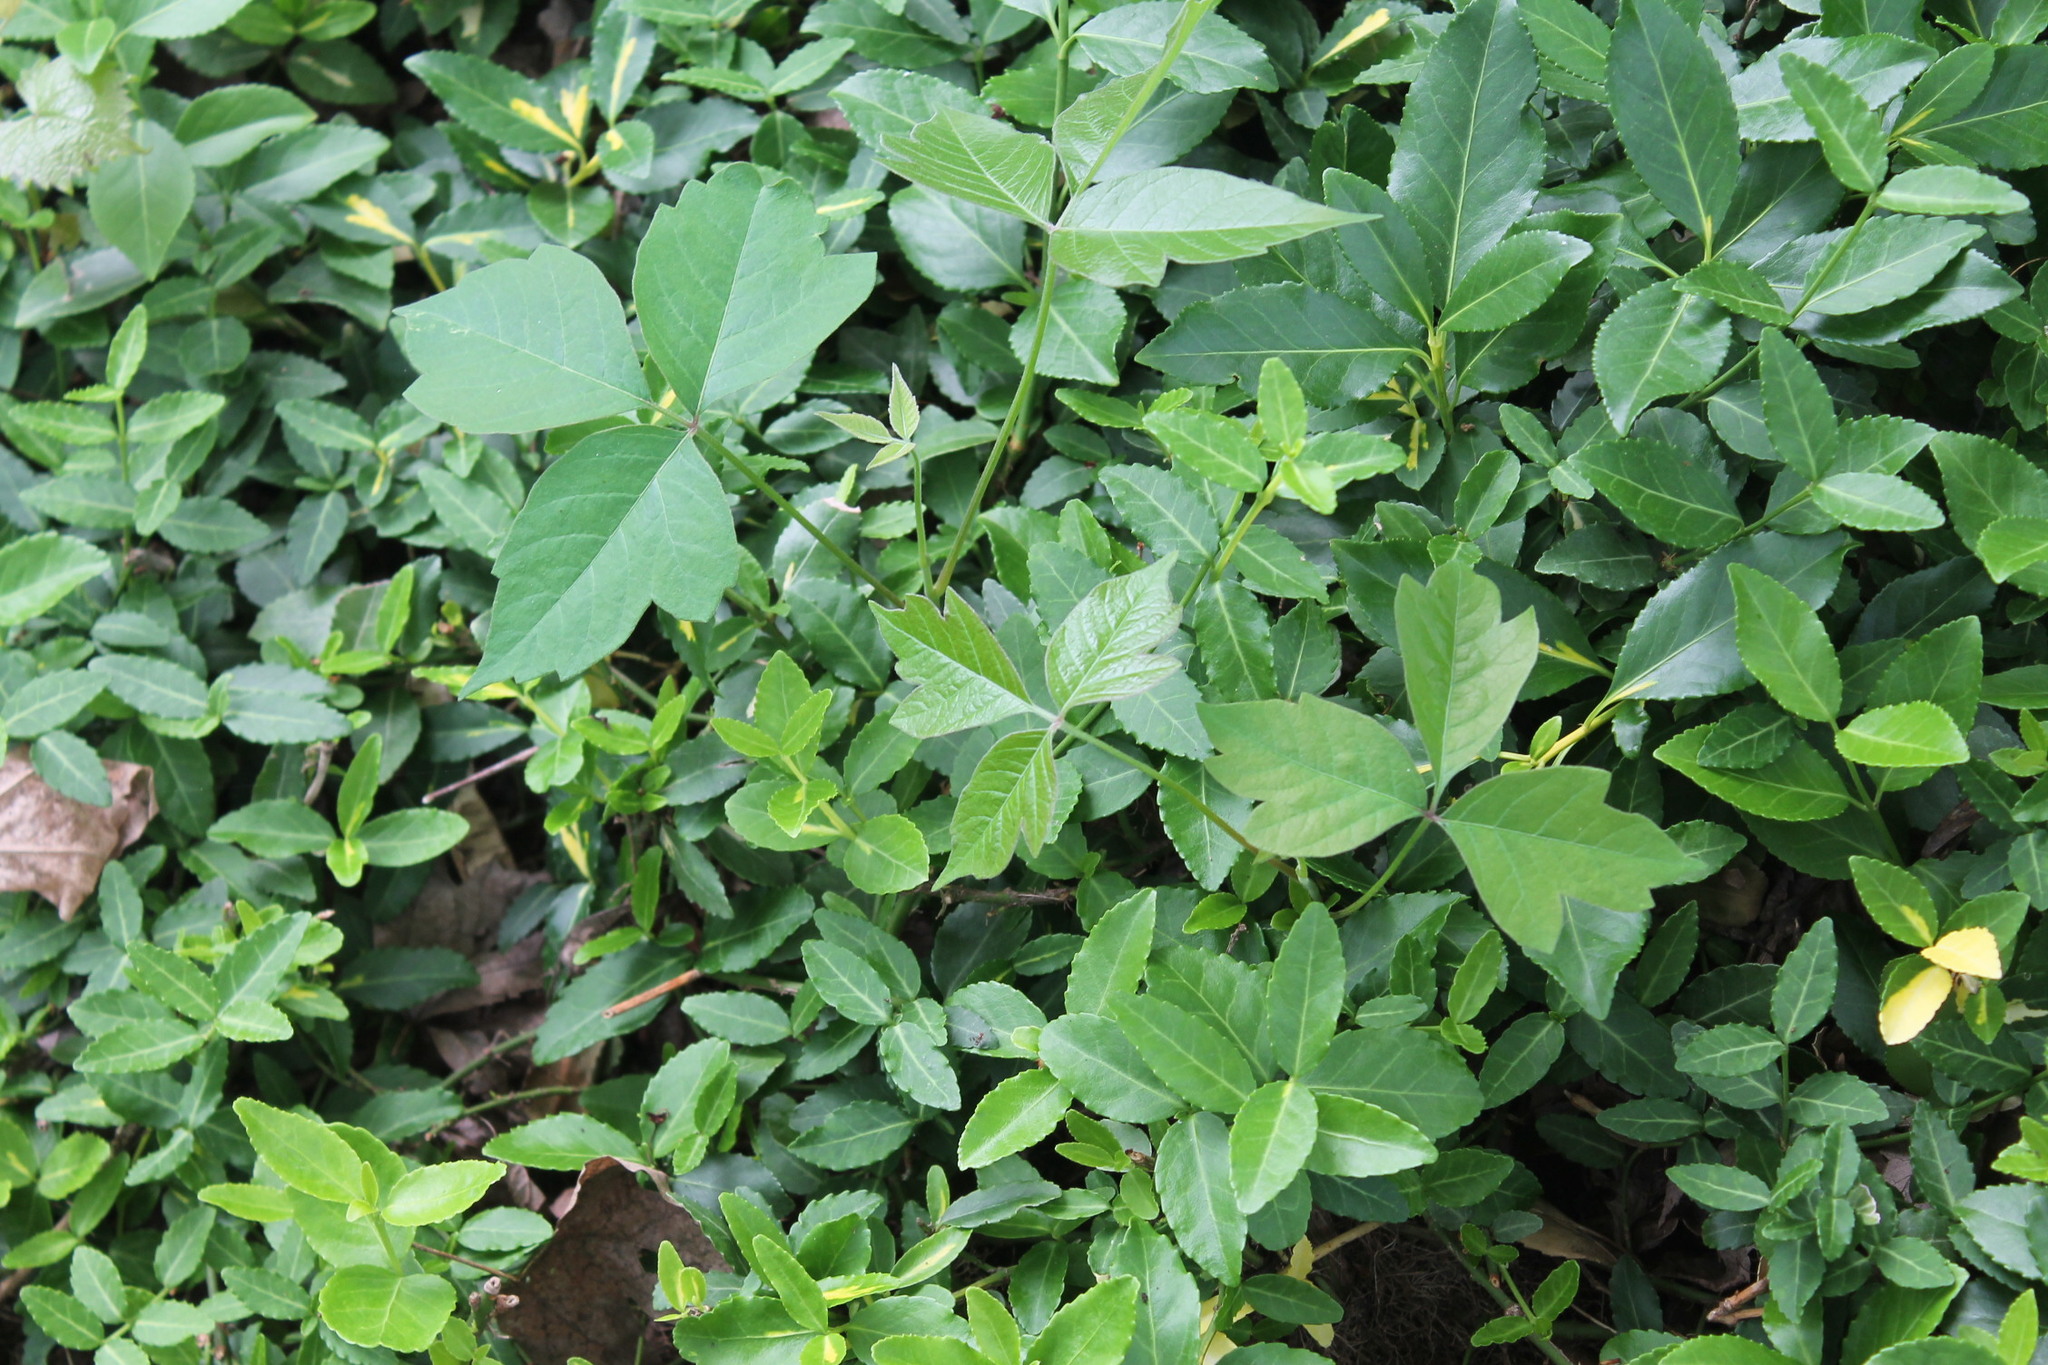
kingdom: Plantae
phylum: Tracheophyta
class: Magnoliopsida
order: Sapindales
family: Anacardiaceae
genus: Toxicodendron
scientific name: Toxicodendron radicans
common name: Poison ivy
